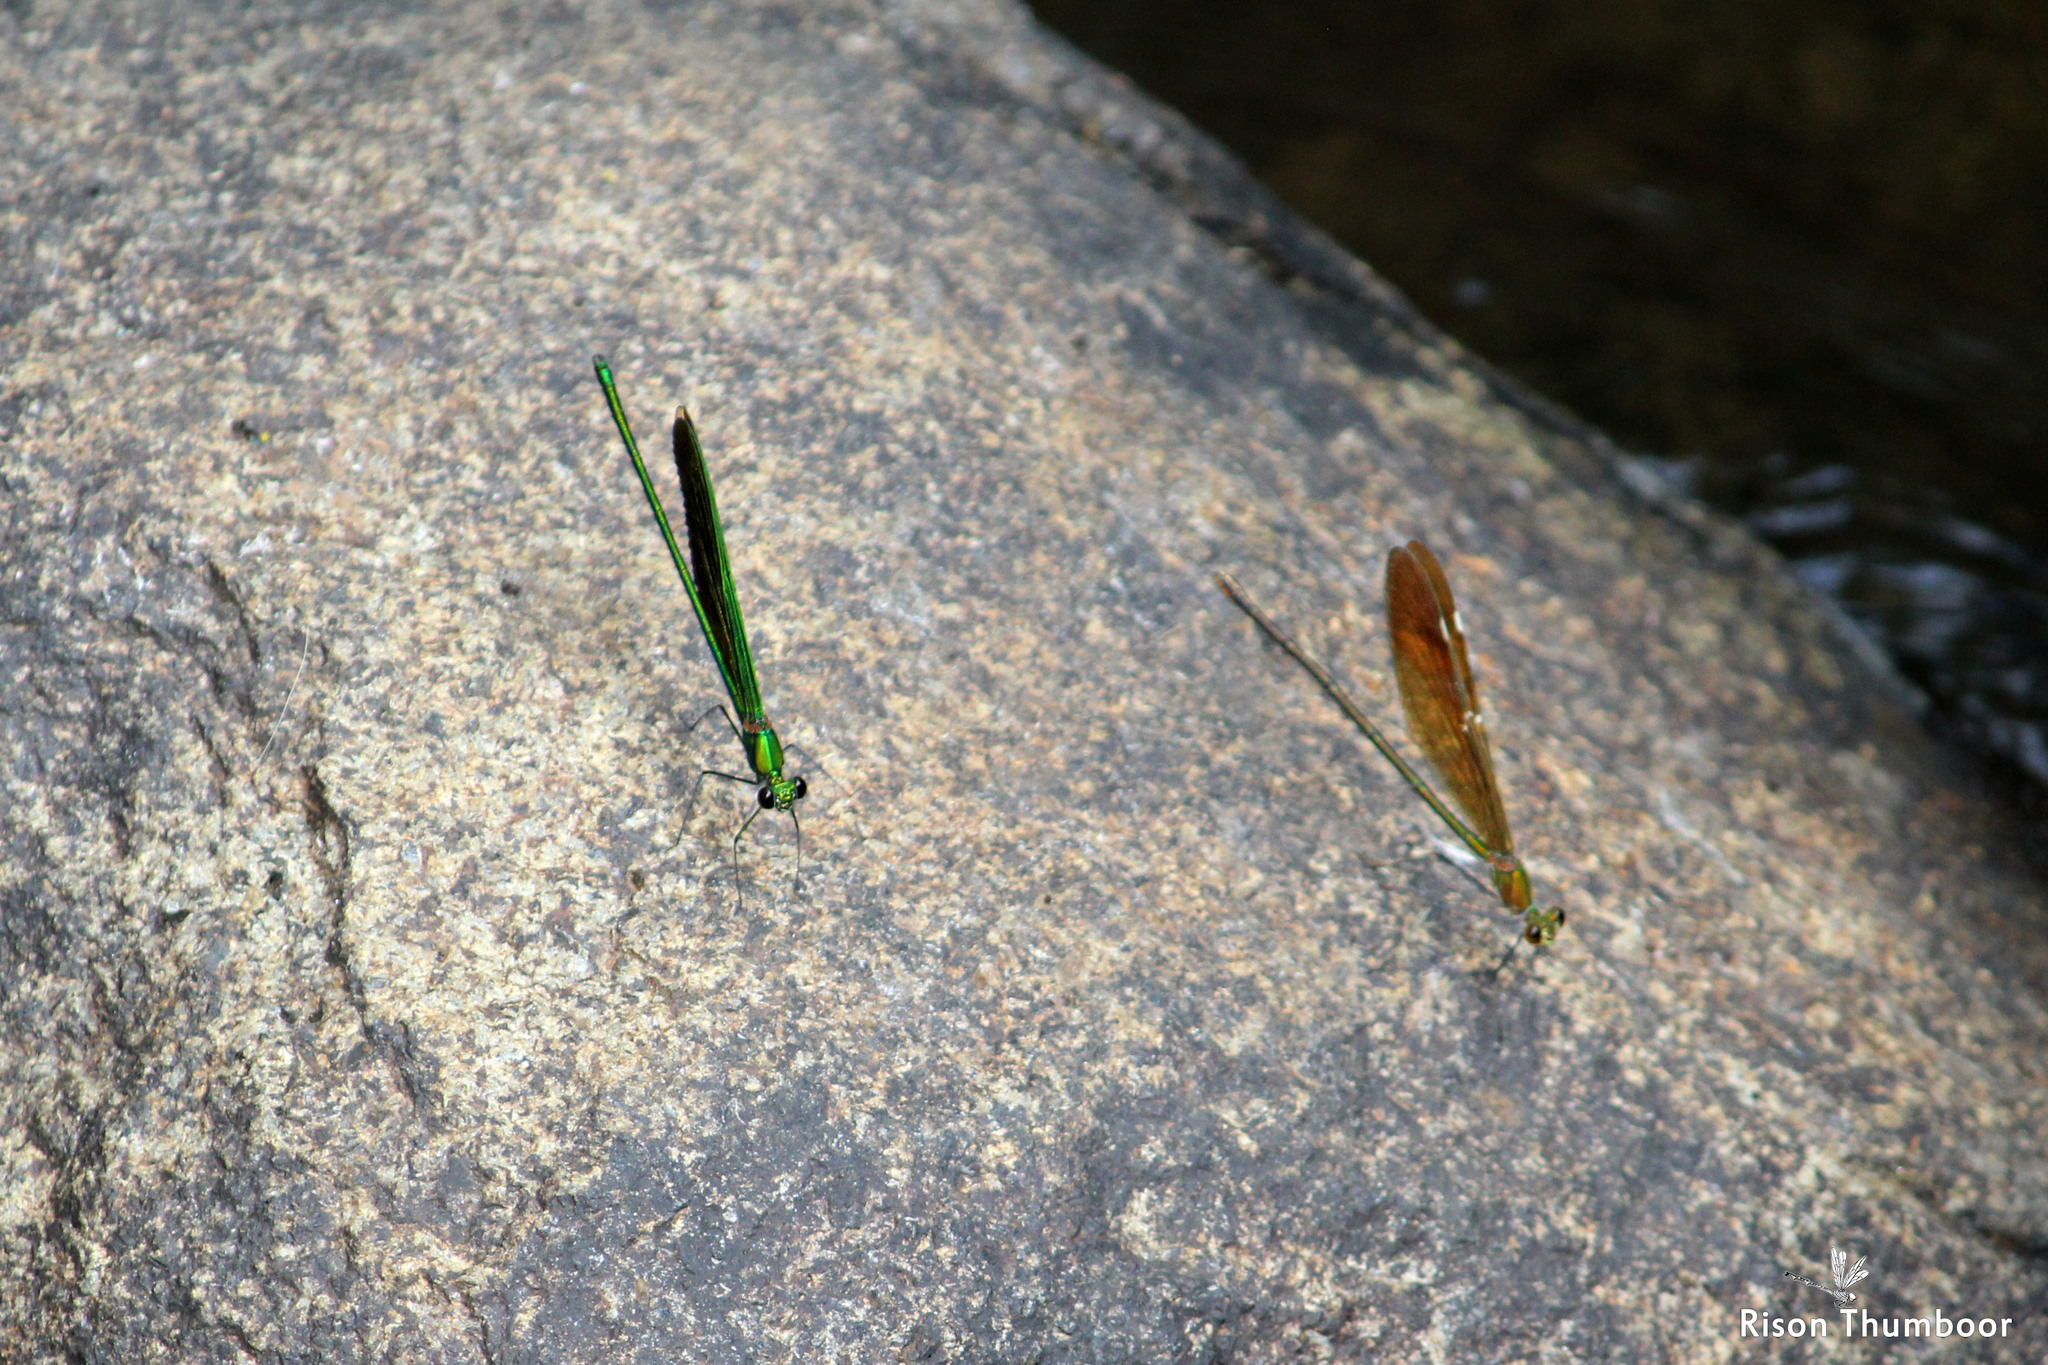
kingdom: Animalia
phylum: Arthropoda
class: Insecta
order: Odonata
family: Calopterygidae
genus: Neurobasis
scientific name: Neurobasis chinensis
